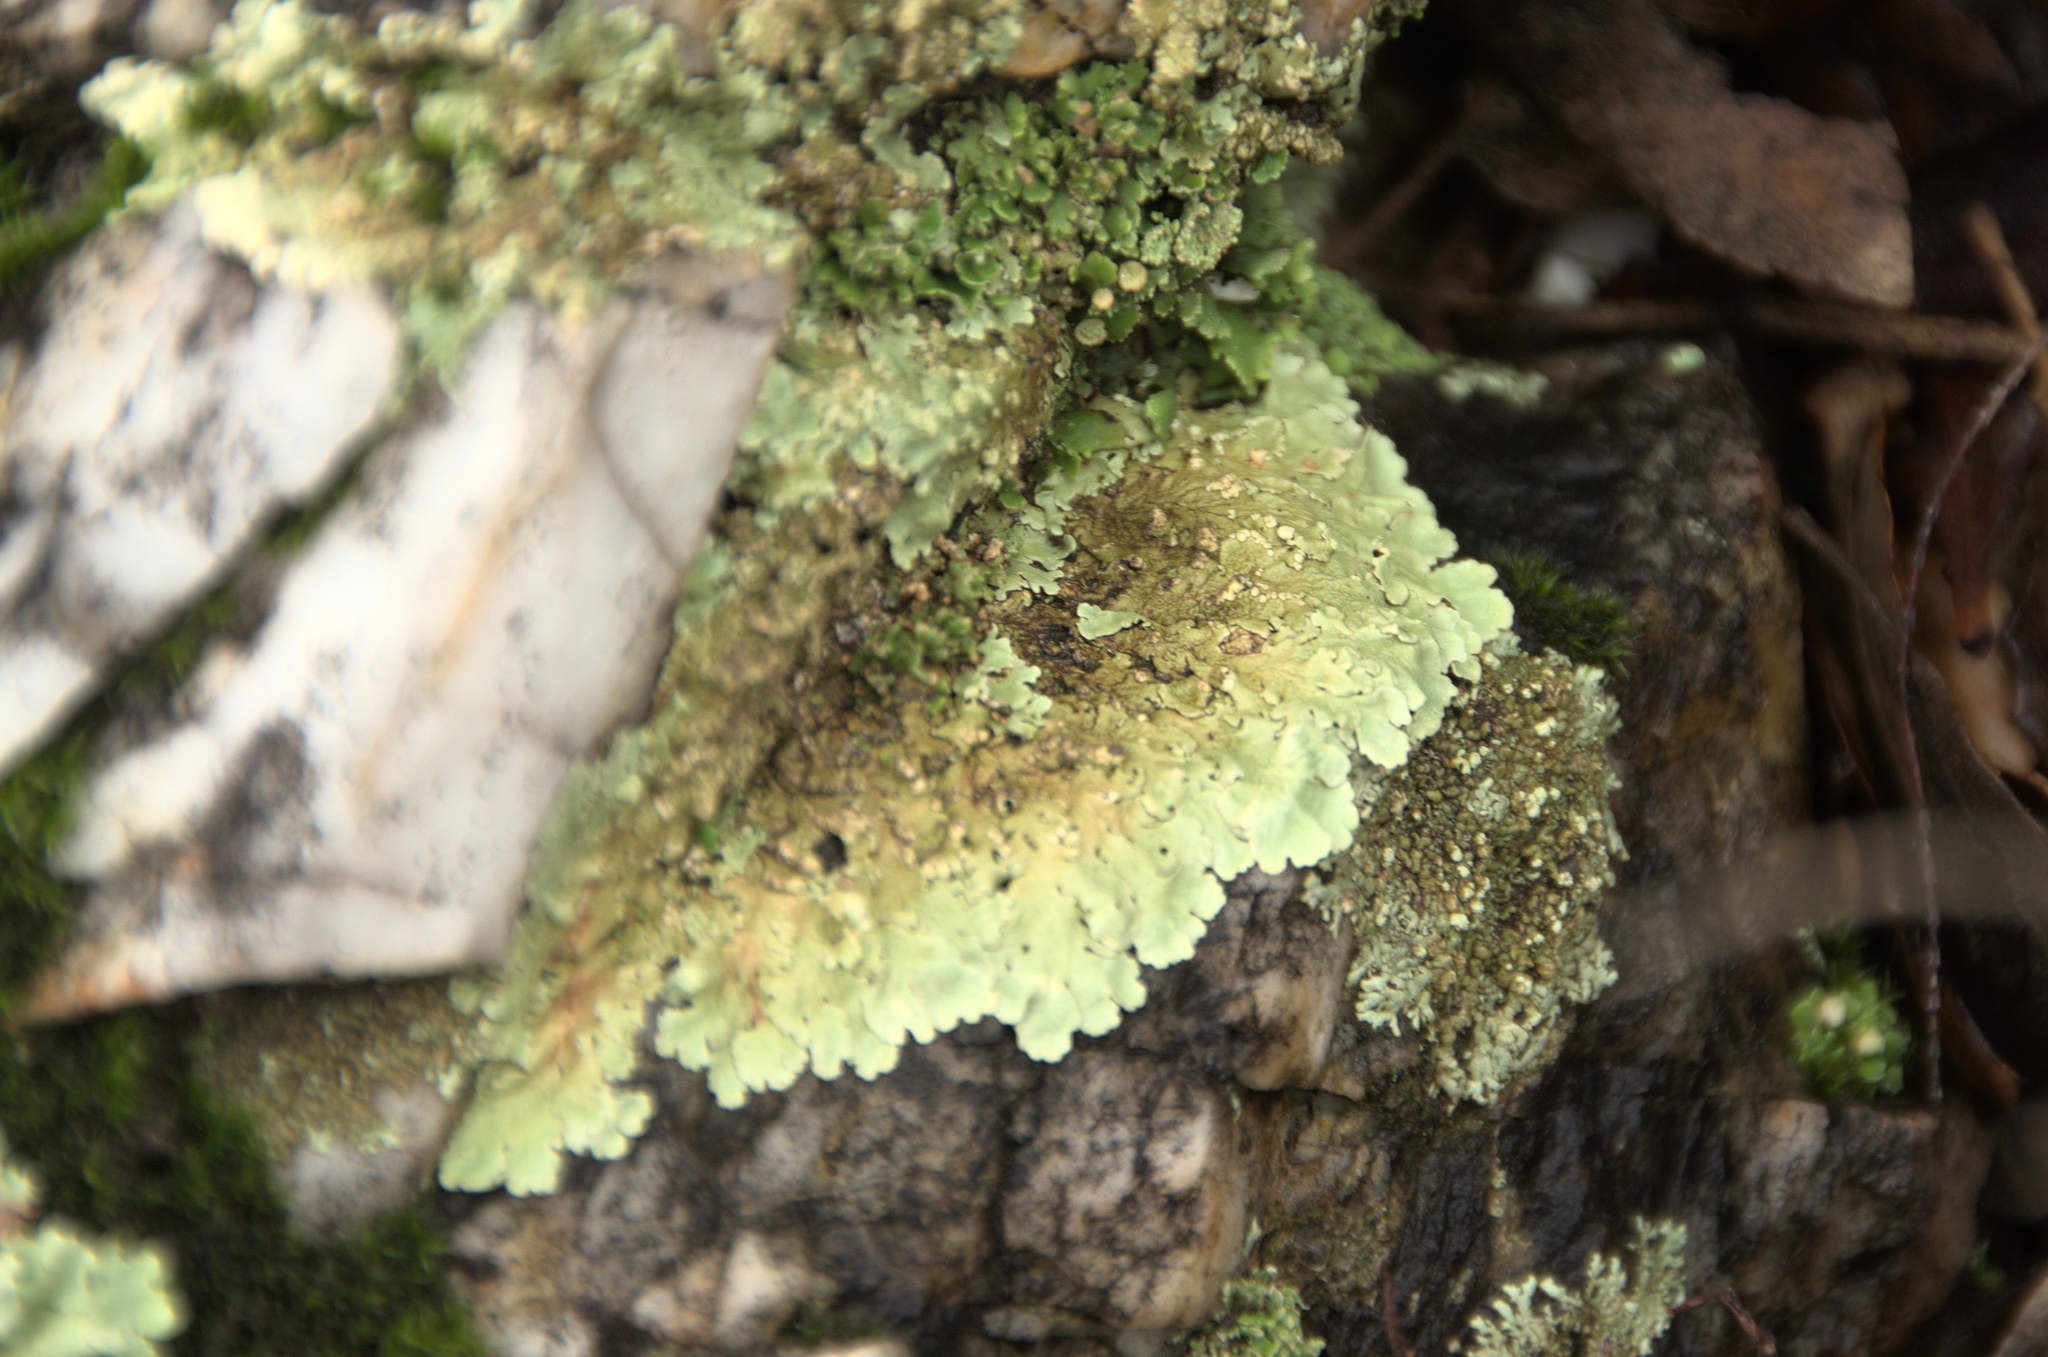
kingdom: Fungi
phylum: Ascomycota
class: Lecanoromycetes
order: Lecanorales
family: Parmeliaceae
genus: Flavoparmelia
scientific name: Flavoparmelia soredians
